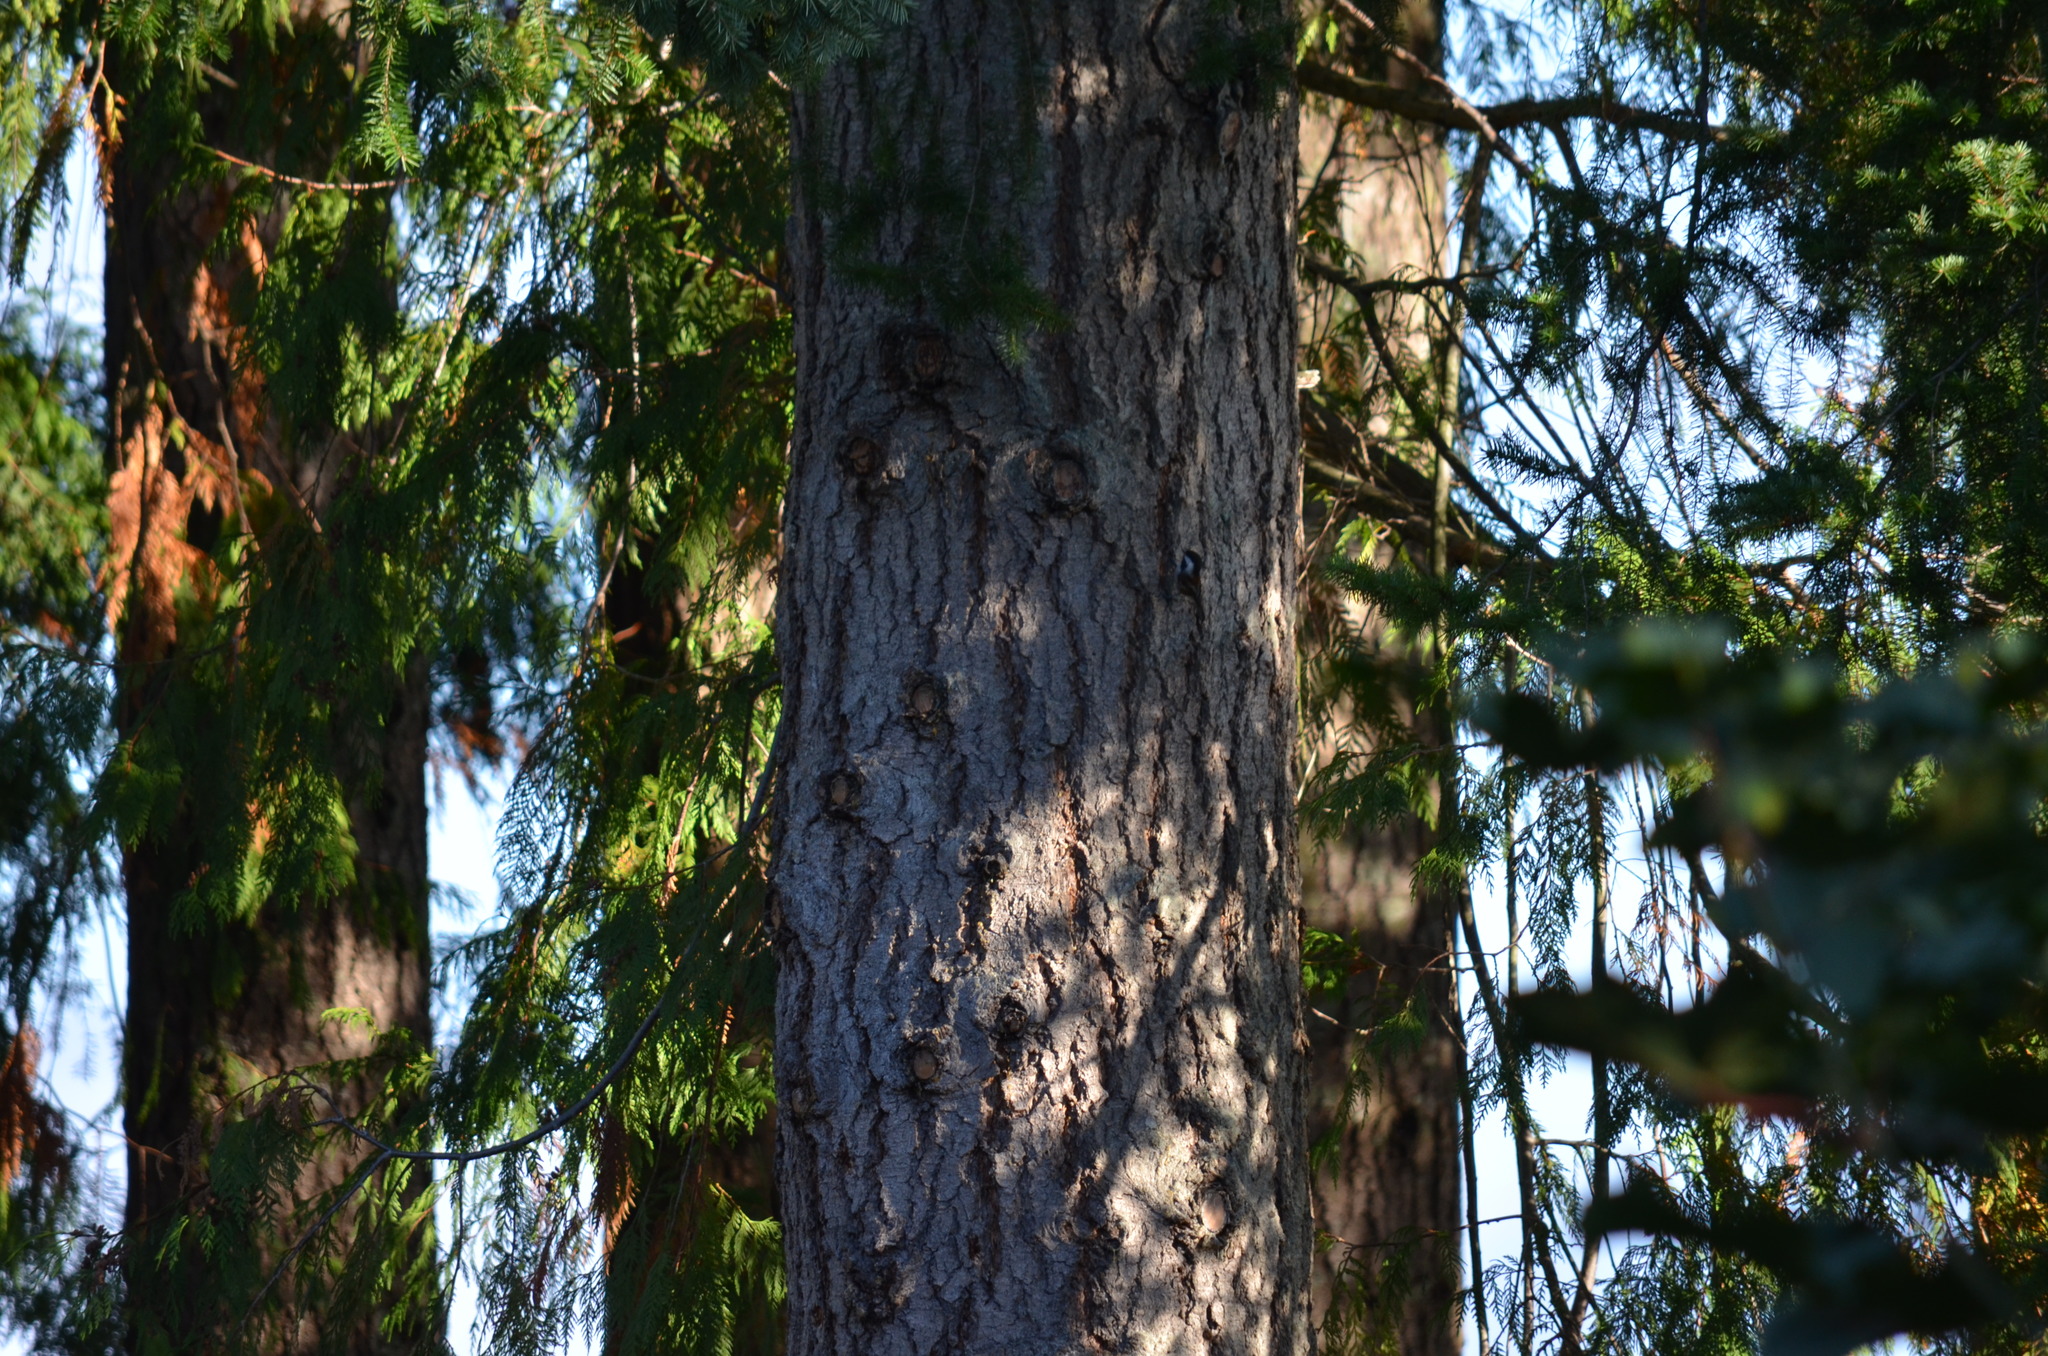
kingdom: Animalia
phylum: Chordata
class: Aves
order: Passeriformes
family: Paridae
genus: Poecile
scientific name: Poecile rufescens
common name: Chestnut-backed chickadee
